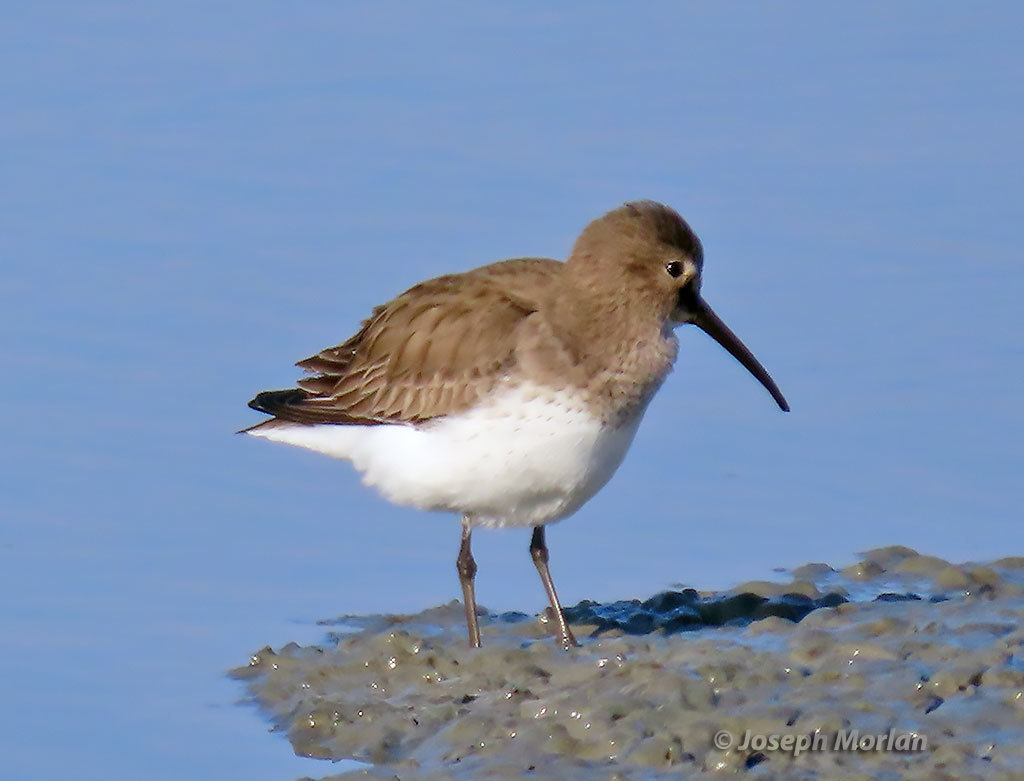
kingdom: Animalia
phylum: Chordata
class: Aves
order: Charadriiformes
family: Scolopacidae
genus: Calidris
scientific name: Calidris alpina
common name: Dunlin
